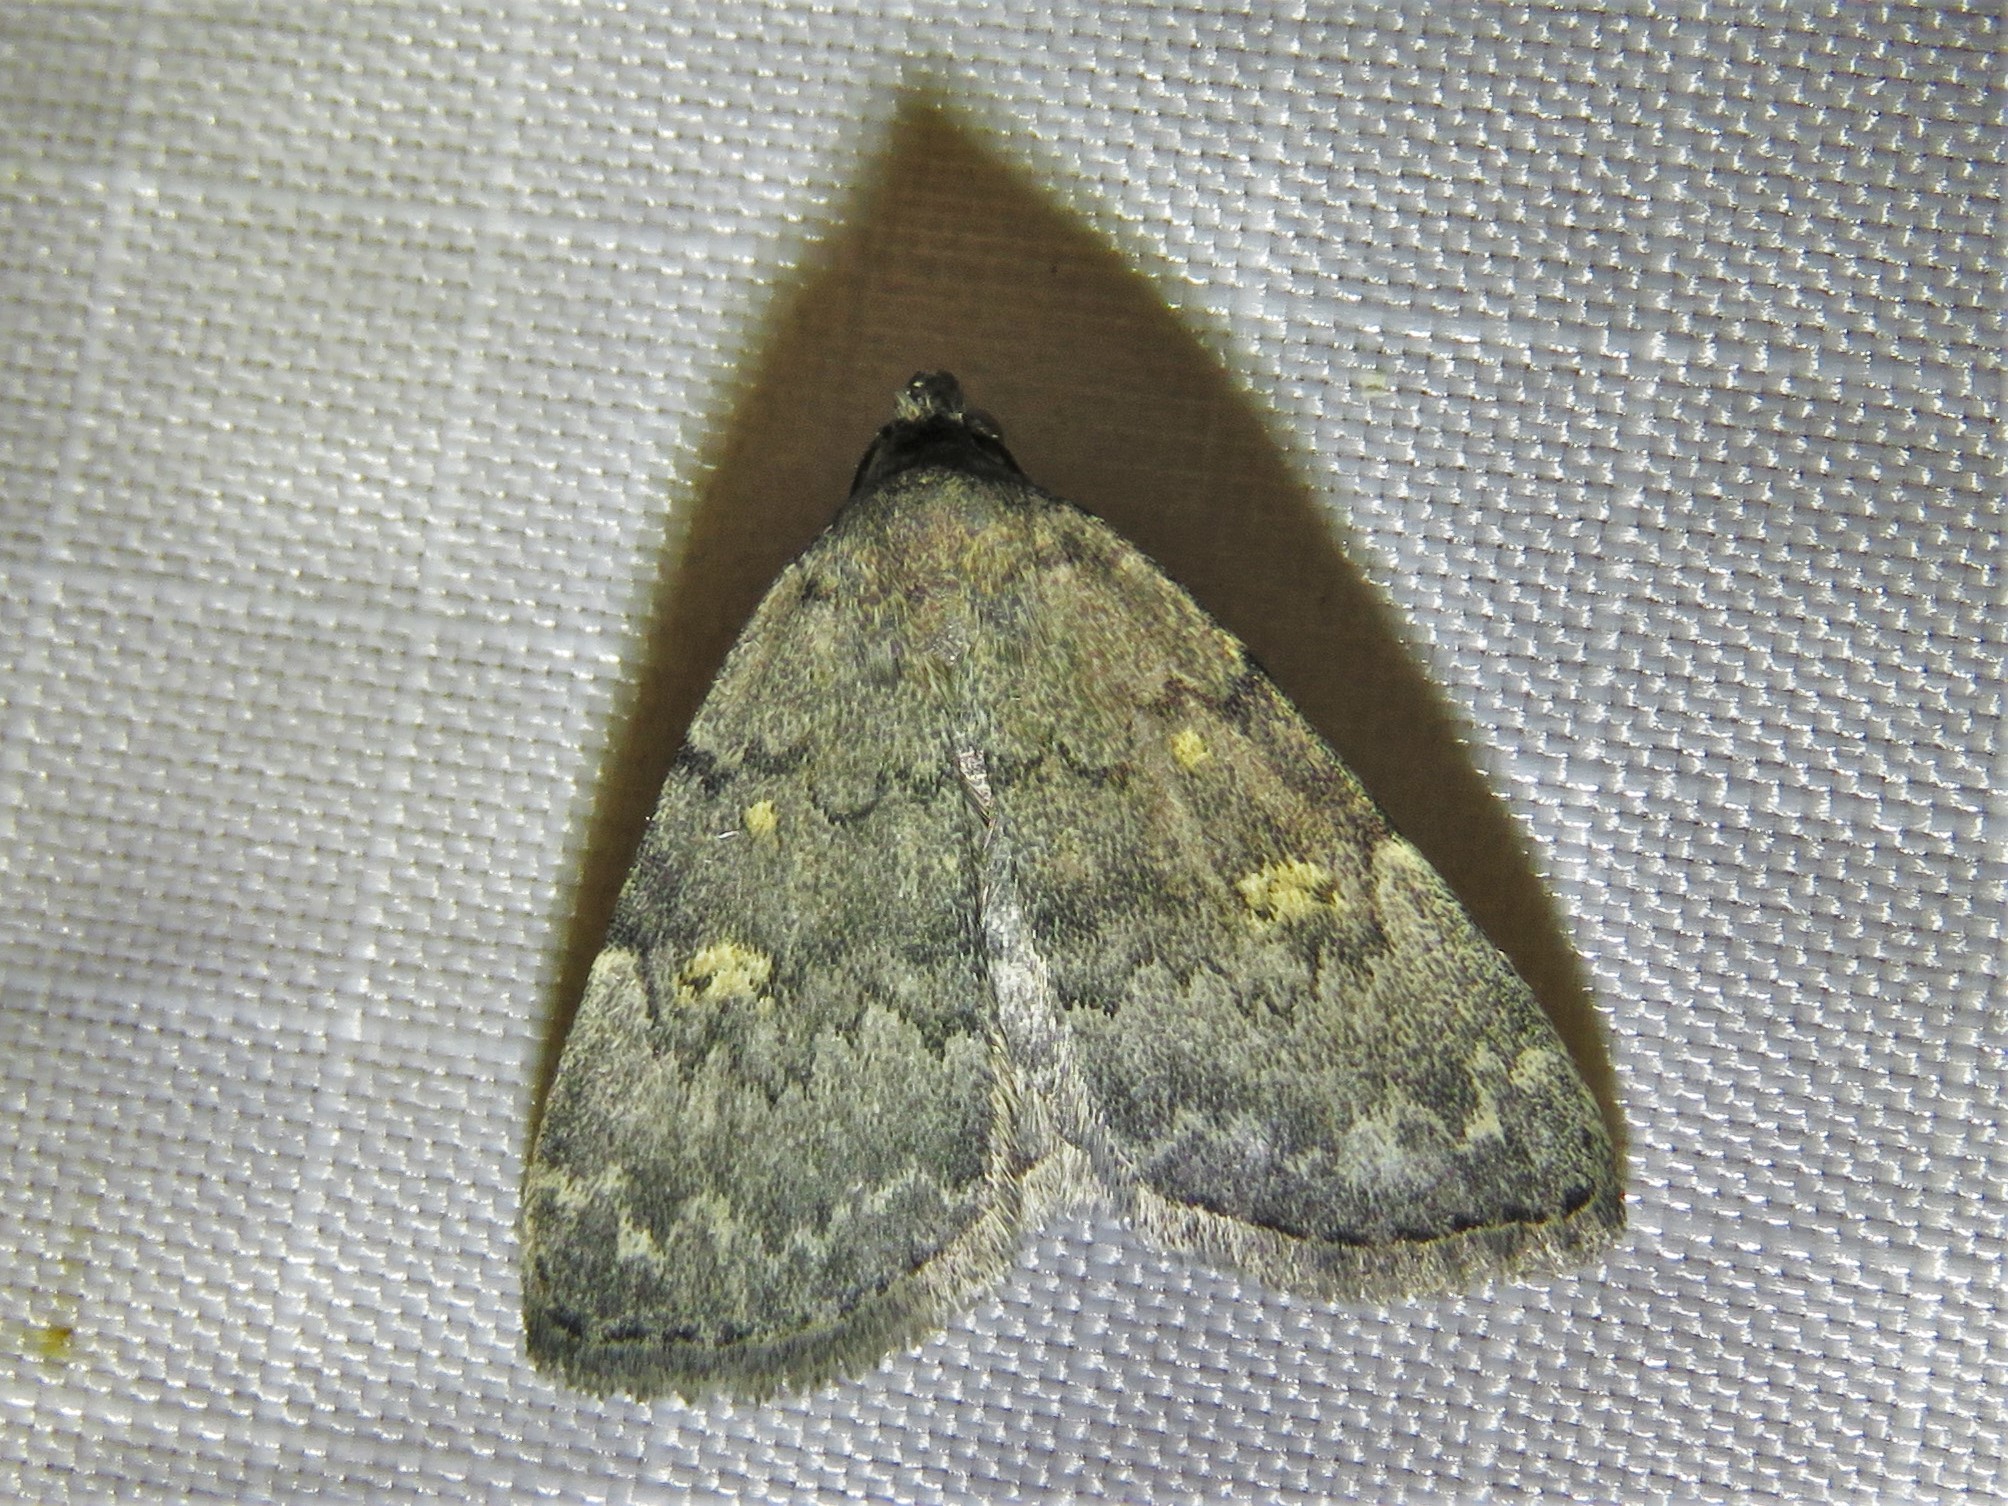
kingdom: Animalia
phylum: Arthropoda
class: Insecta
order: Lepidoptera
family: Erebidae
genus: Idia
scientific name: Idia aemula
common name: Common idia moth
